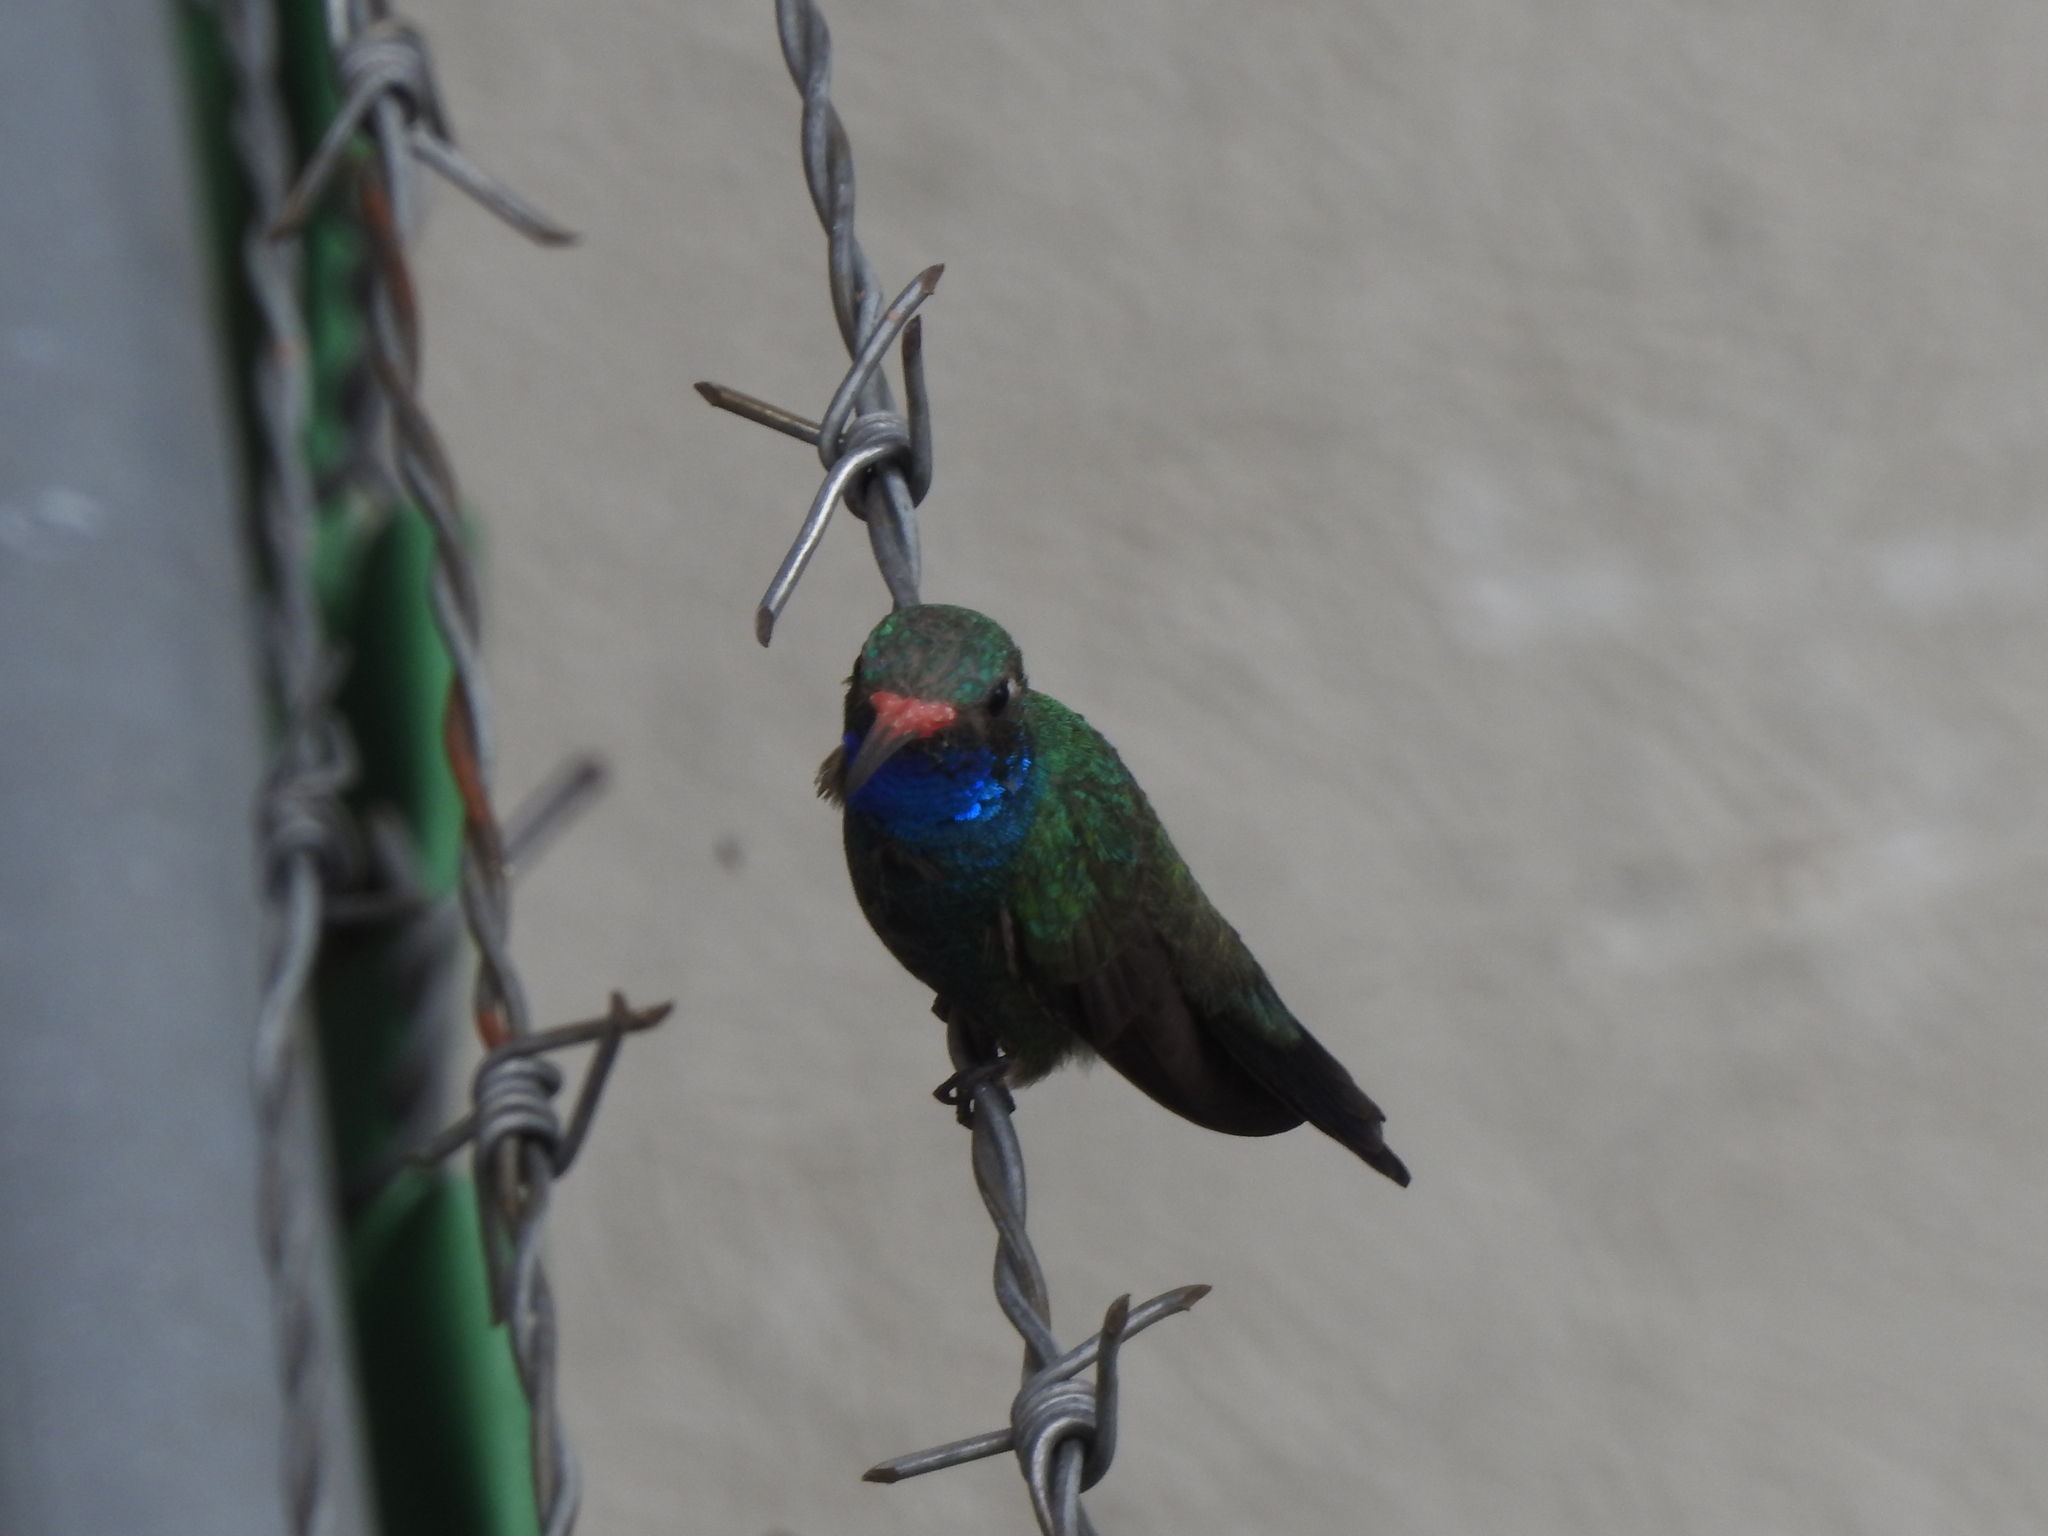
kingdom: Animalia
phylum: Chordata
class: Aves
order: Apodiformes
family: Trochilidae
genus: Cynanthus
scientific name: Cynanthus latirostris
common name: Broad-billed hummingbird
